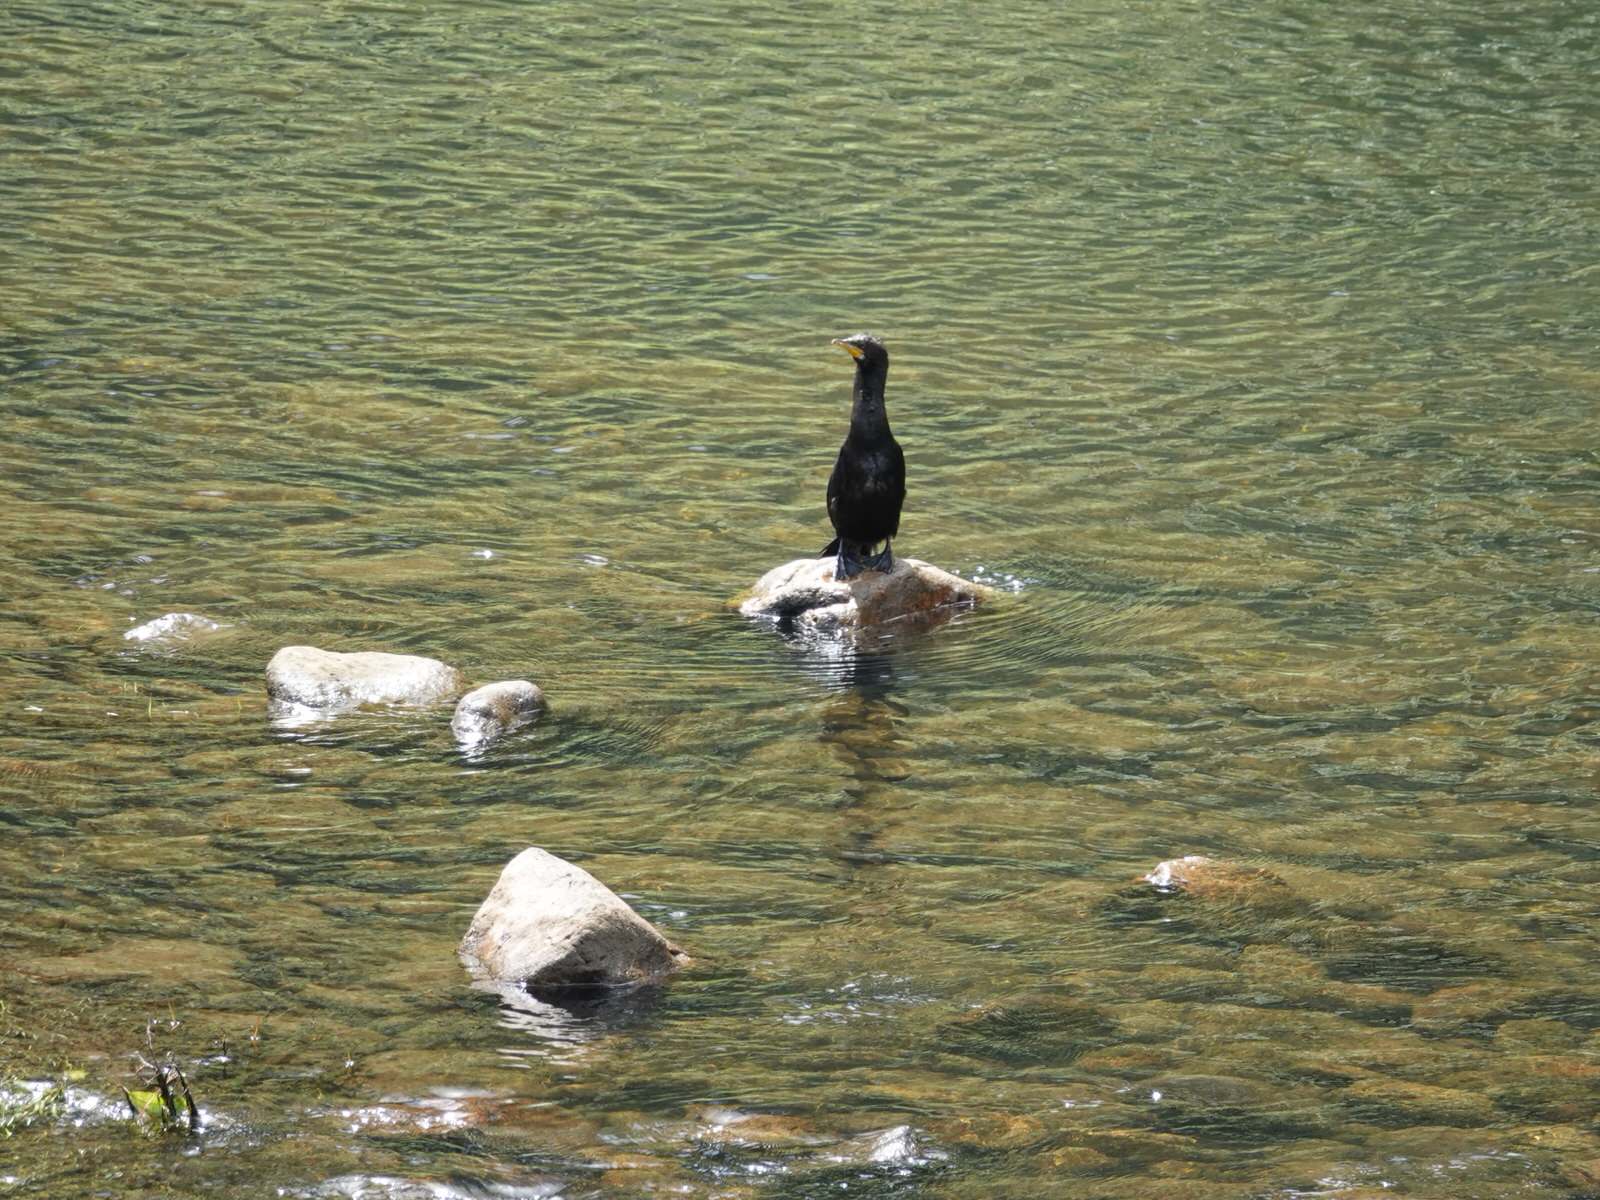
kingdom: Animalia
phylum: Chordata
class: Aves
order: Suliformes
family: Phalacrocoracidae
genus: Microcarbo
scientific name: Microcarbo melanoleucos
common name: Little pied cormorant
